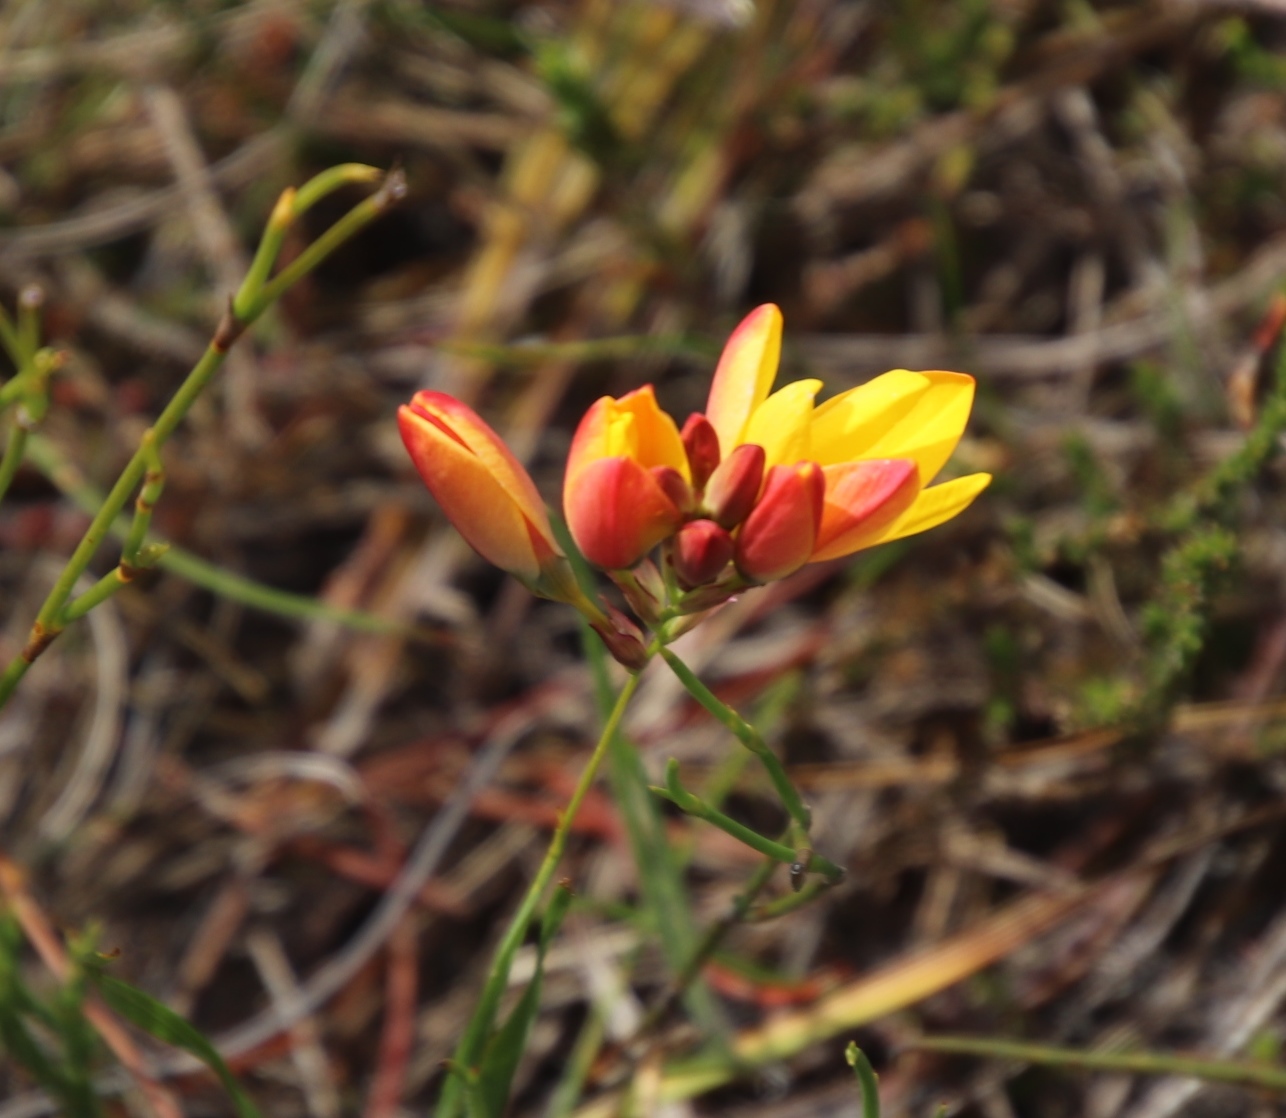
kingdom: Plantae
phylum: Tracheophyta
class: Liliopsida
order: Asparagales
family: Iridaceae
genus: Ixia
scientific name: Ixia dubia
